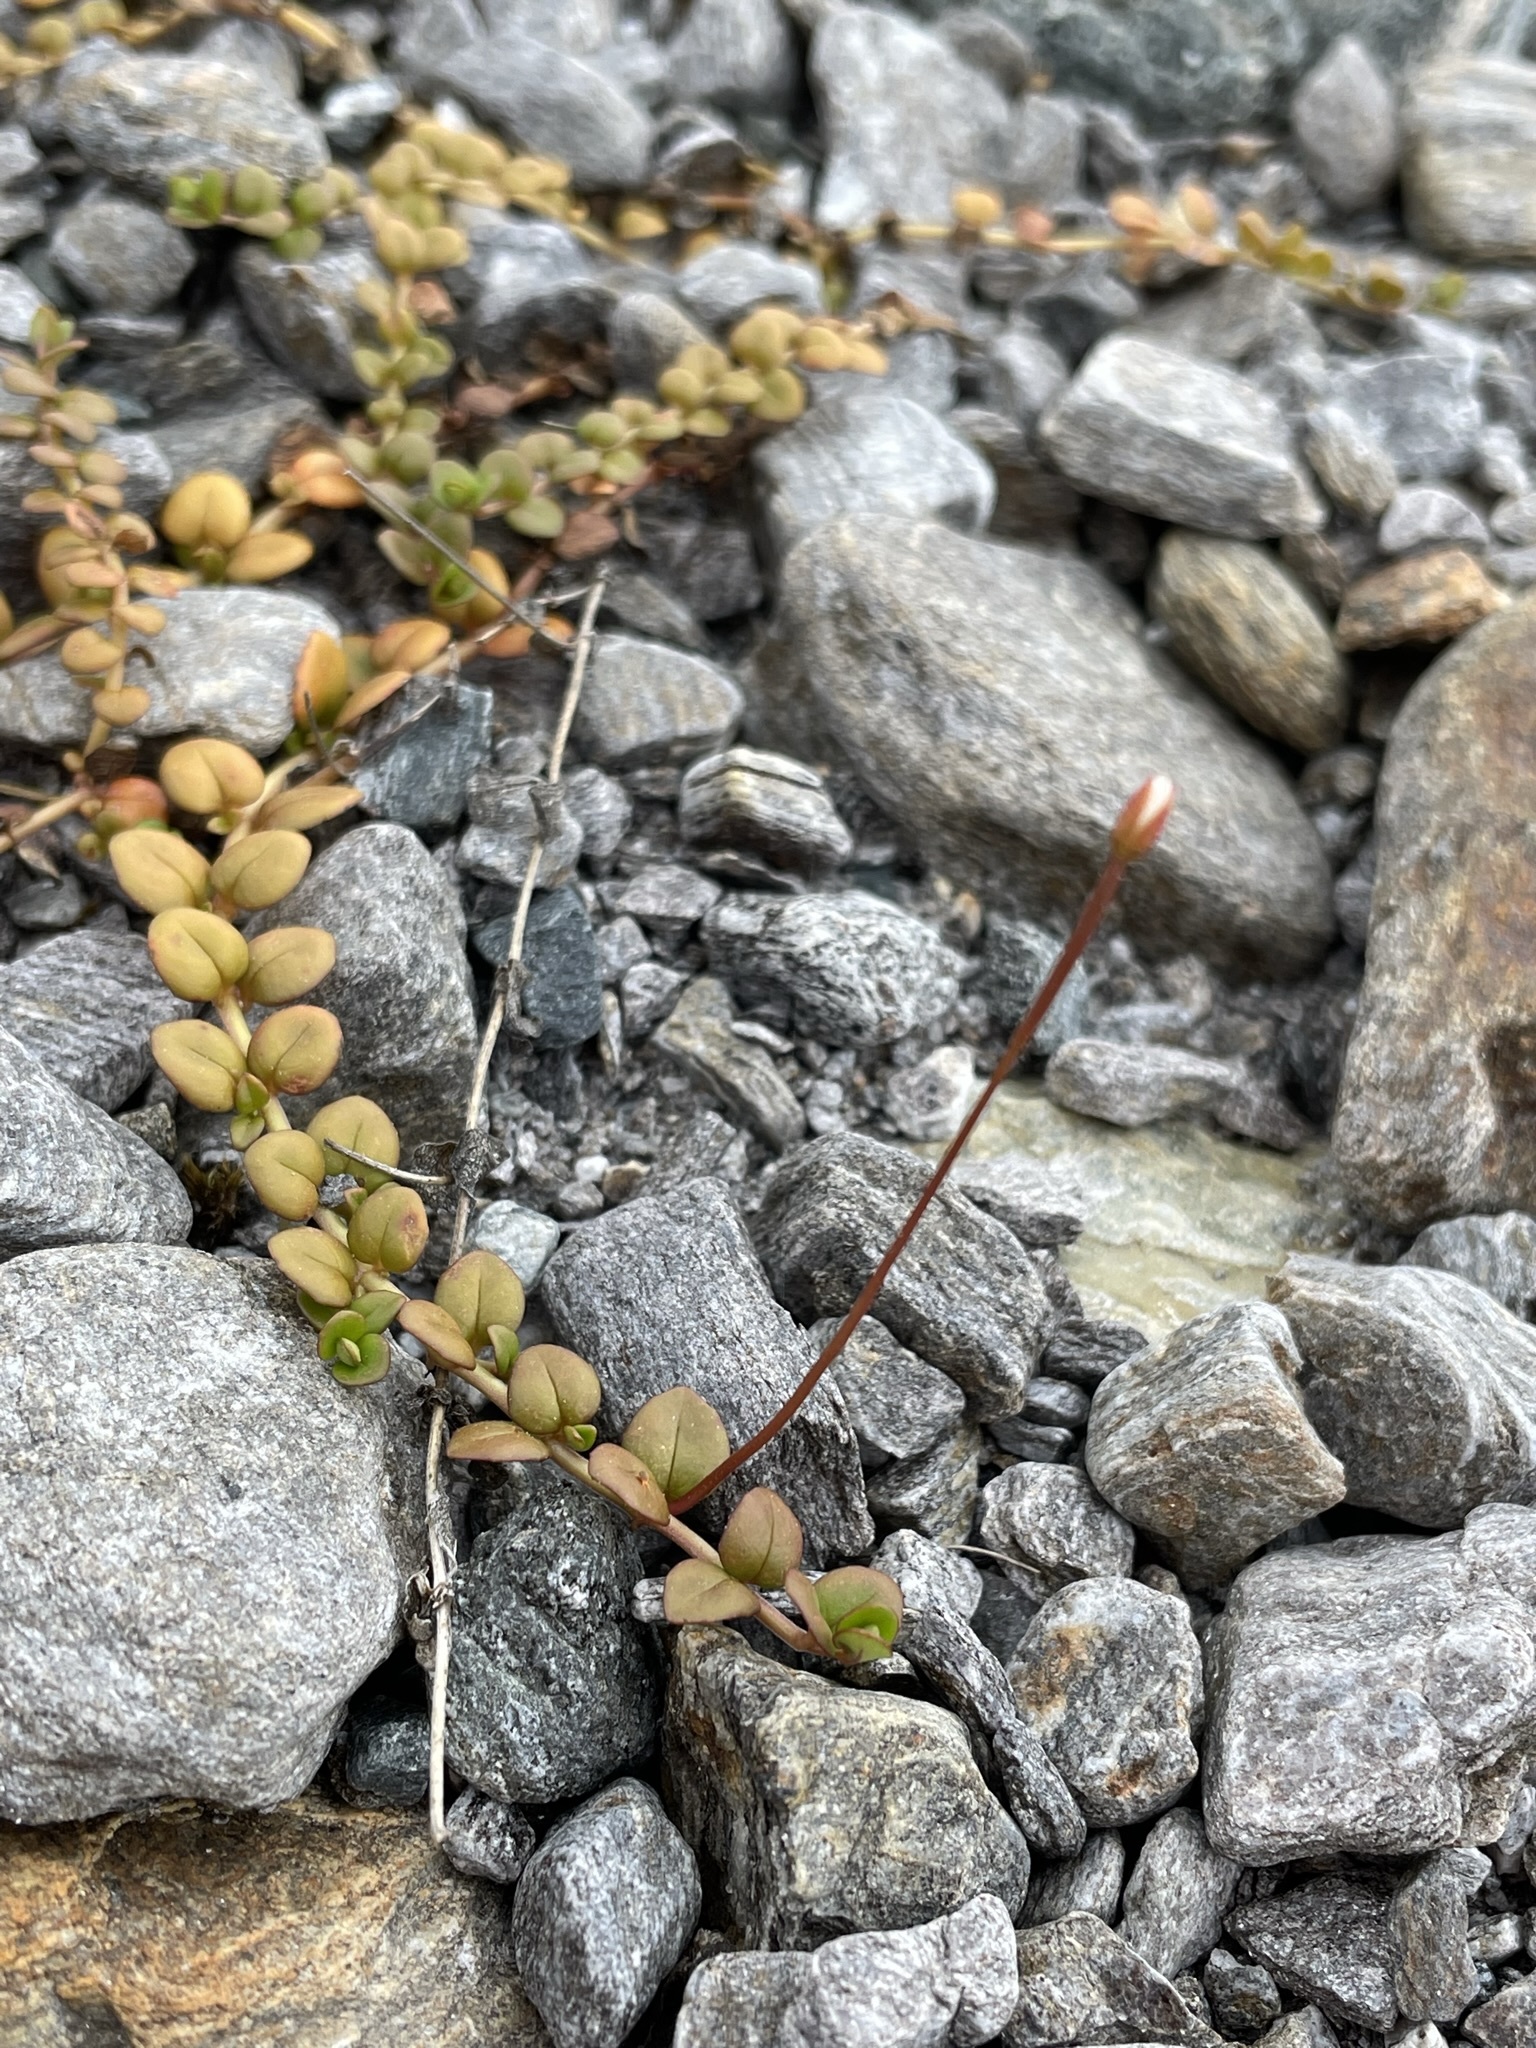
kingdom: Plantae
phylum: Tracheophyta
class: Magnoliopsida
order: Myrtales
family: Onagraceae
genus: Epilobium
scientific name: Epilobium brunnescens
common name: New zealand willowherb
